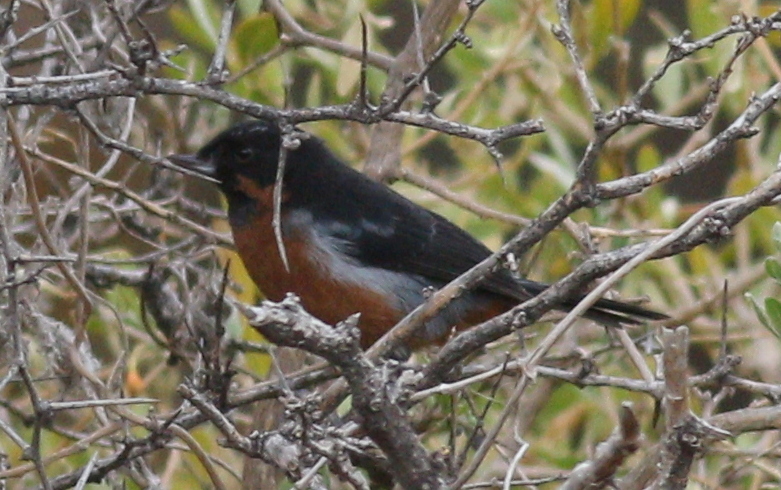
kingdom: Animalia
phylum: Chordata
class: Aves
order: Passeriformes
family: Thraupidae
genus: Diglossa
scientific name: Diglossa brunneiventris
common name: Black-throated flowerpiercer
